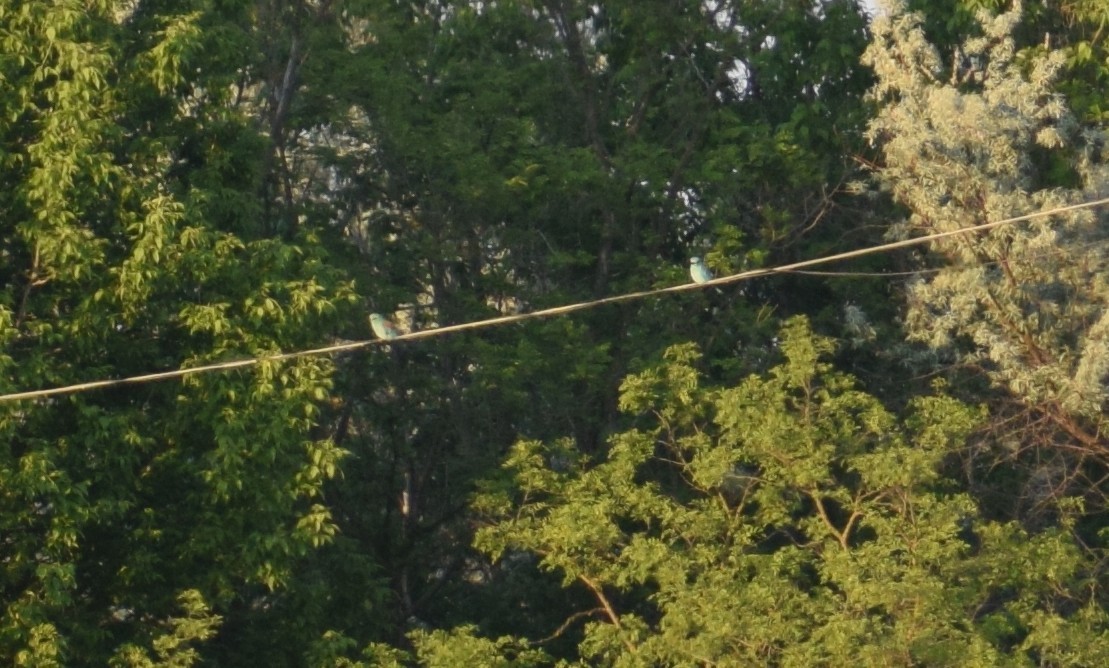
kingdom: Animalia
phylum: Chordata
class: Aves
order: Coraciiformes
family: Coraciidae
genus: Coracias
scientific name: Coracias garrulus
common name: European roller
